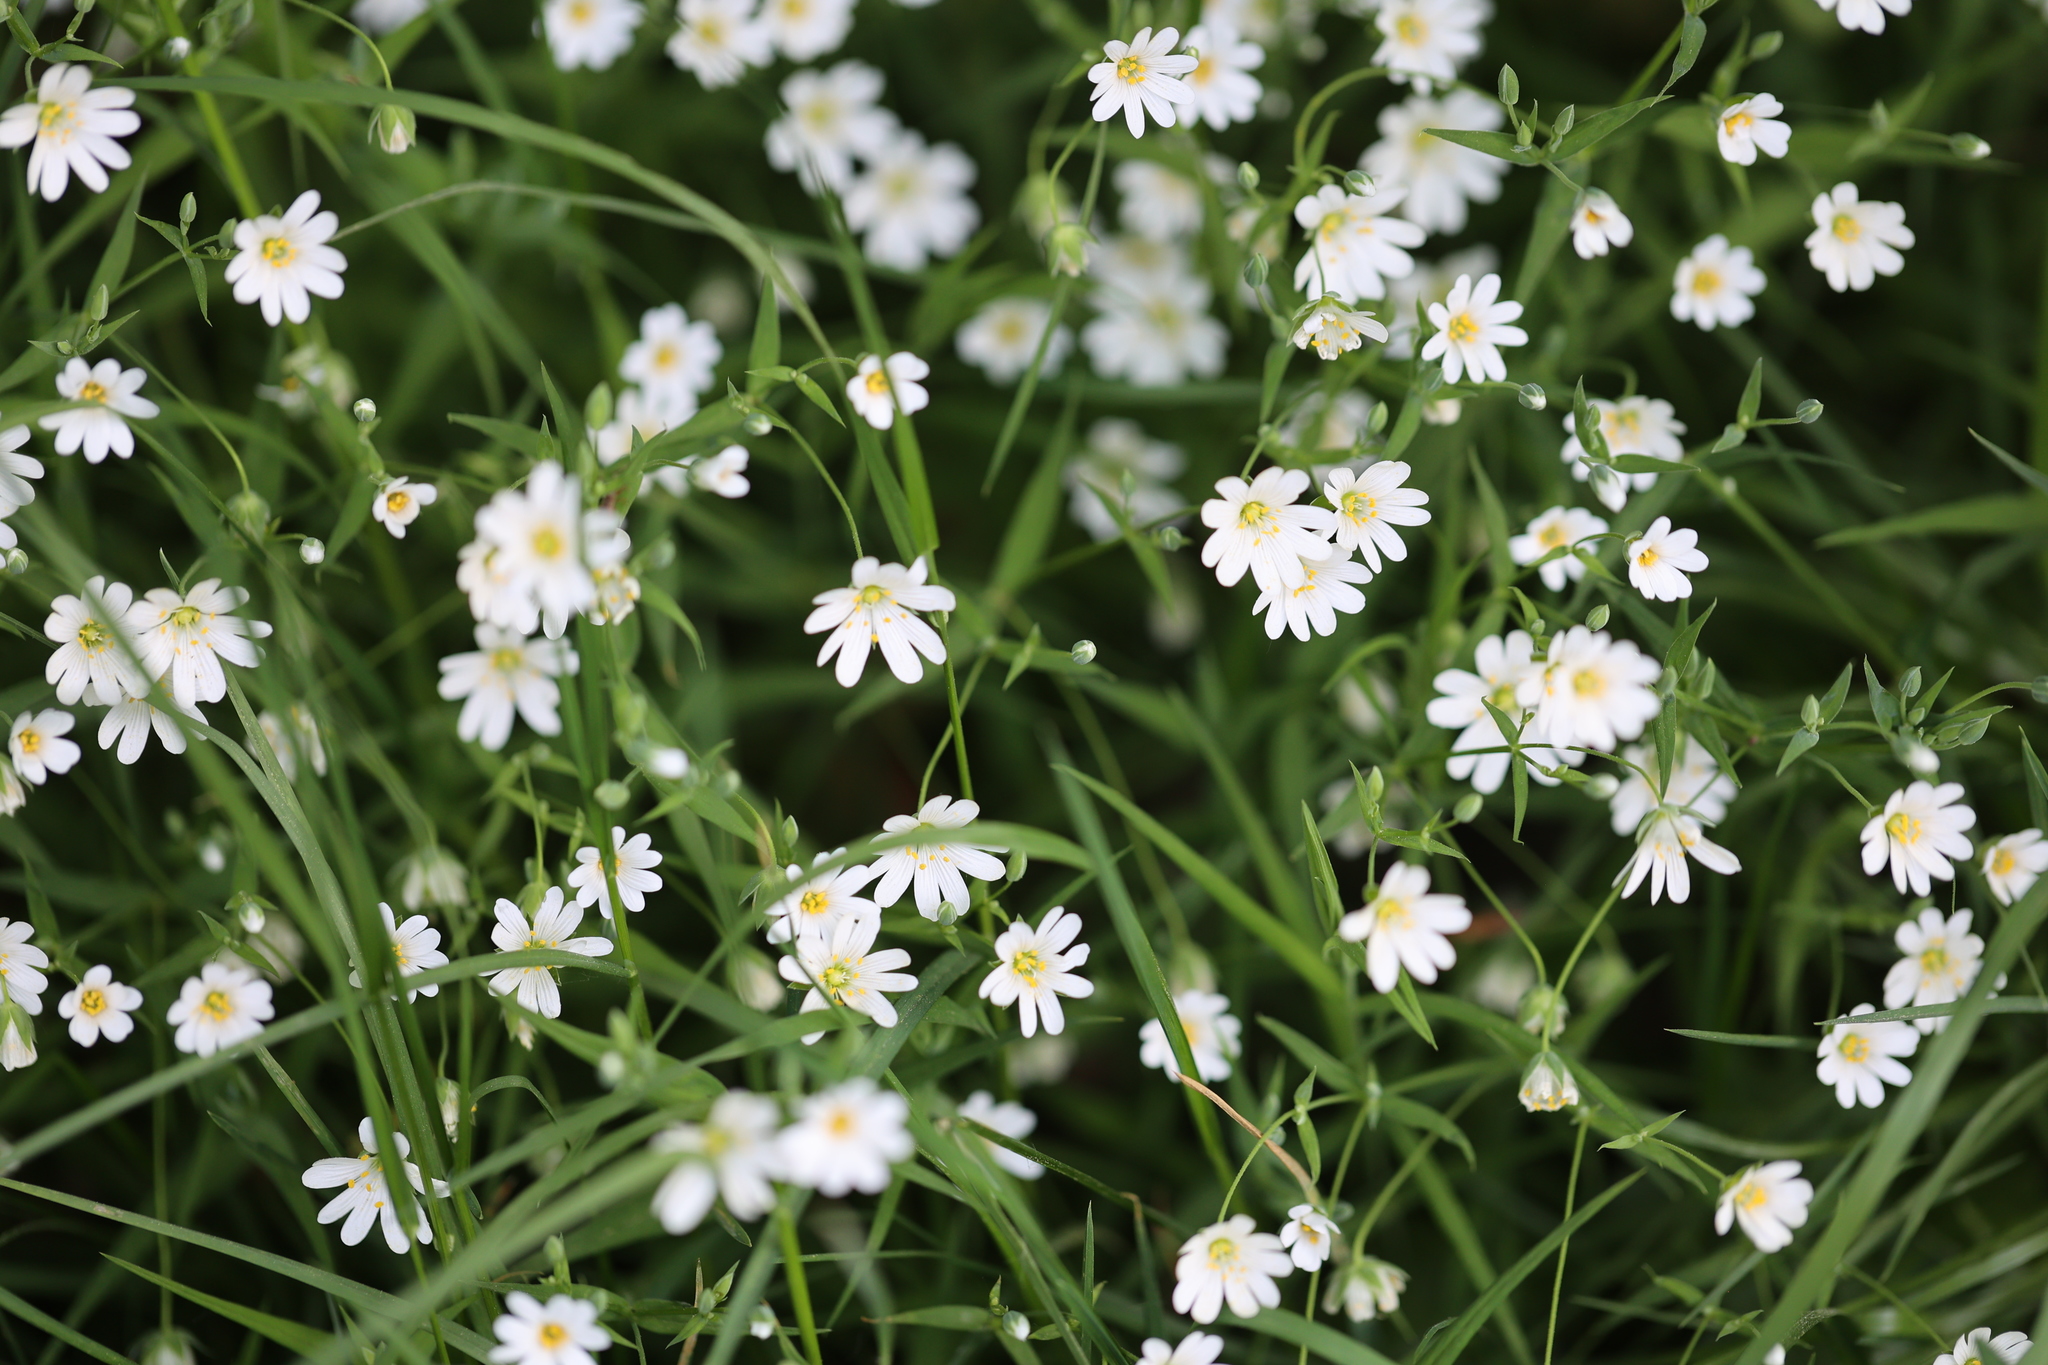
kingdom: Plantae
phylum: Tracheophyta
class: Magnoliopsida
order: Caryophyllales
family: Caryophyllaceae
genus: Rabelera
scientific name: Rabelera holostea
